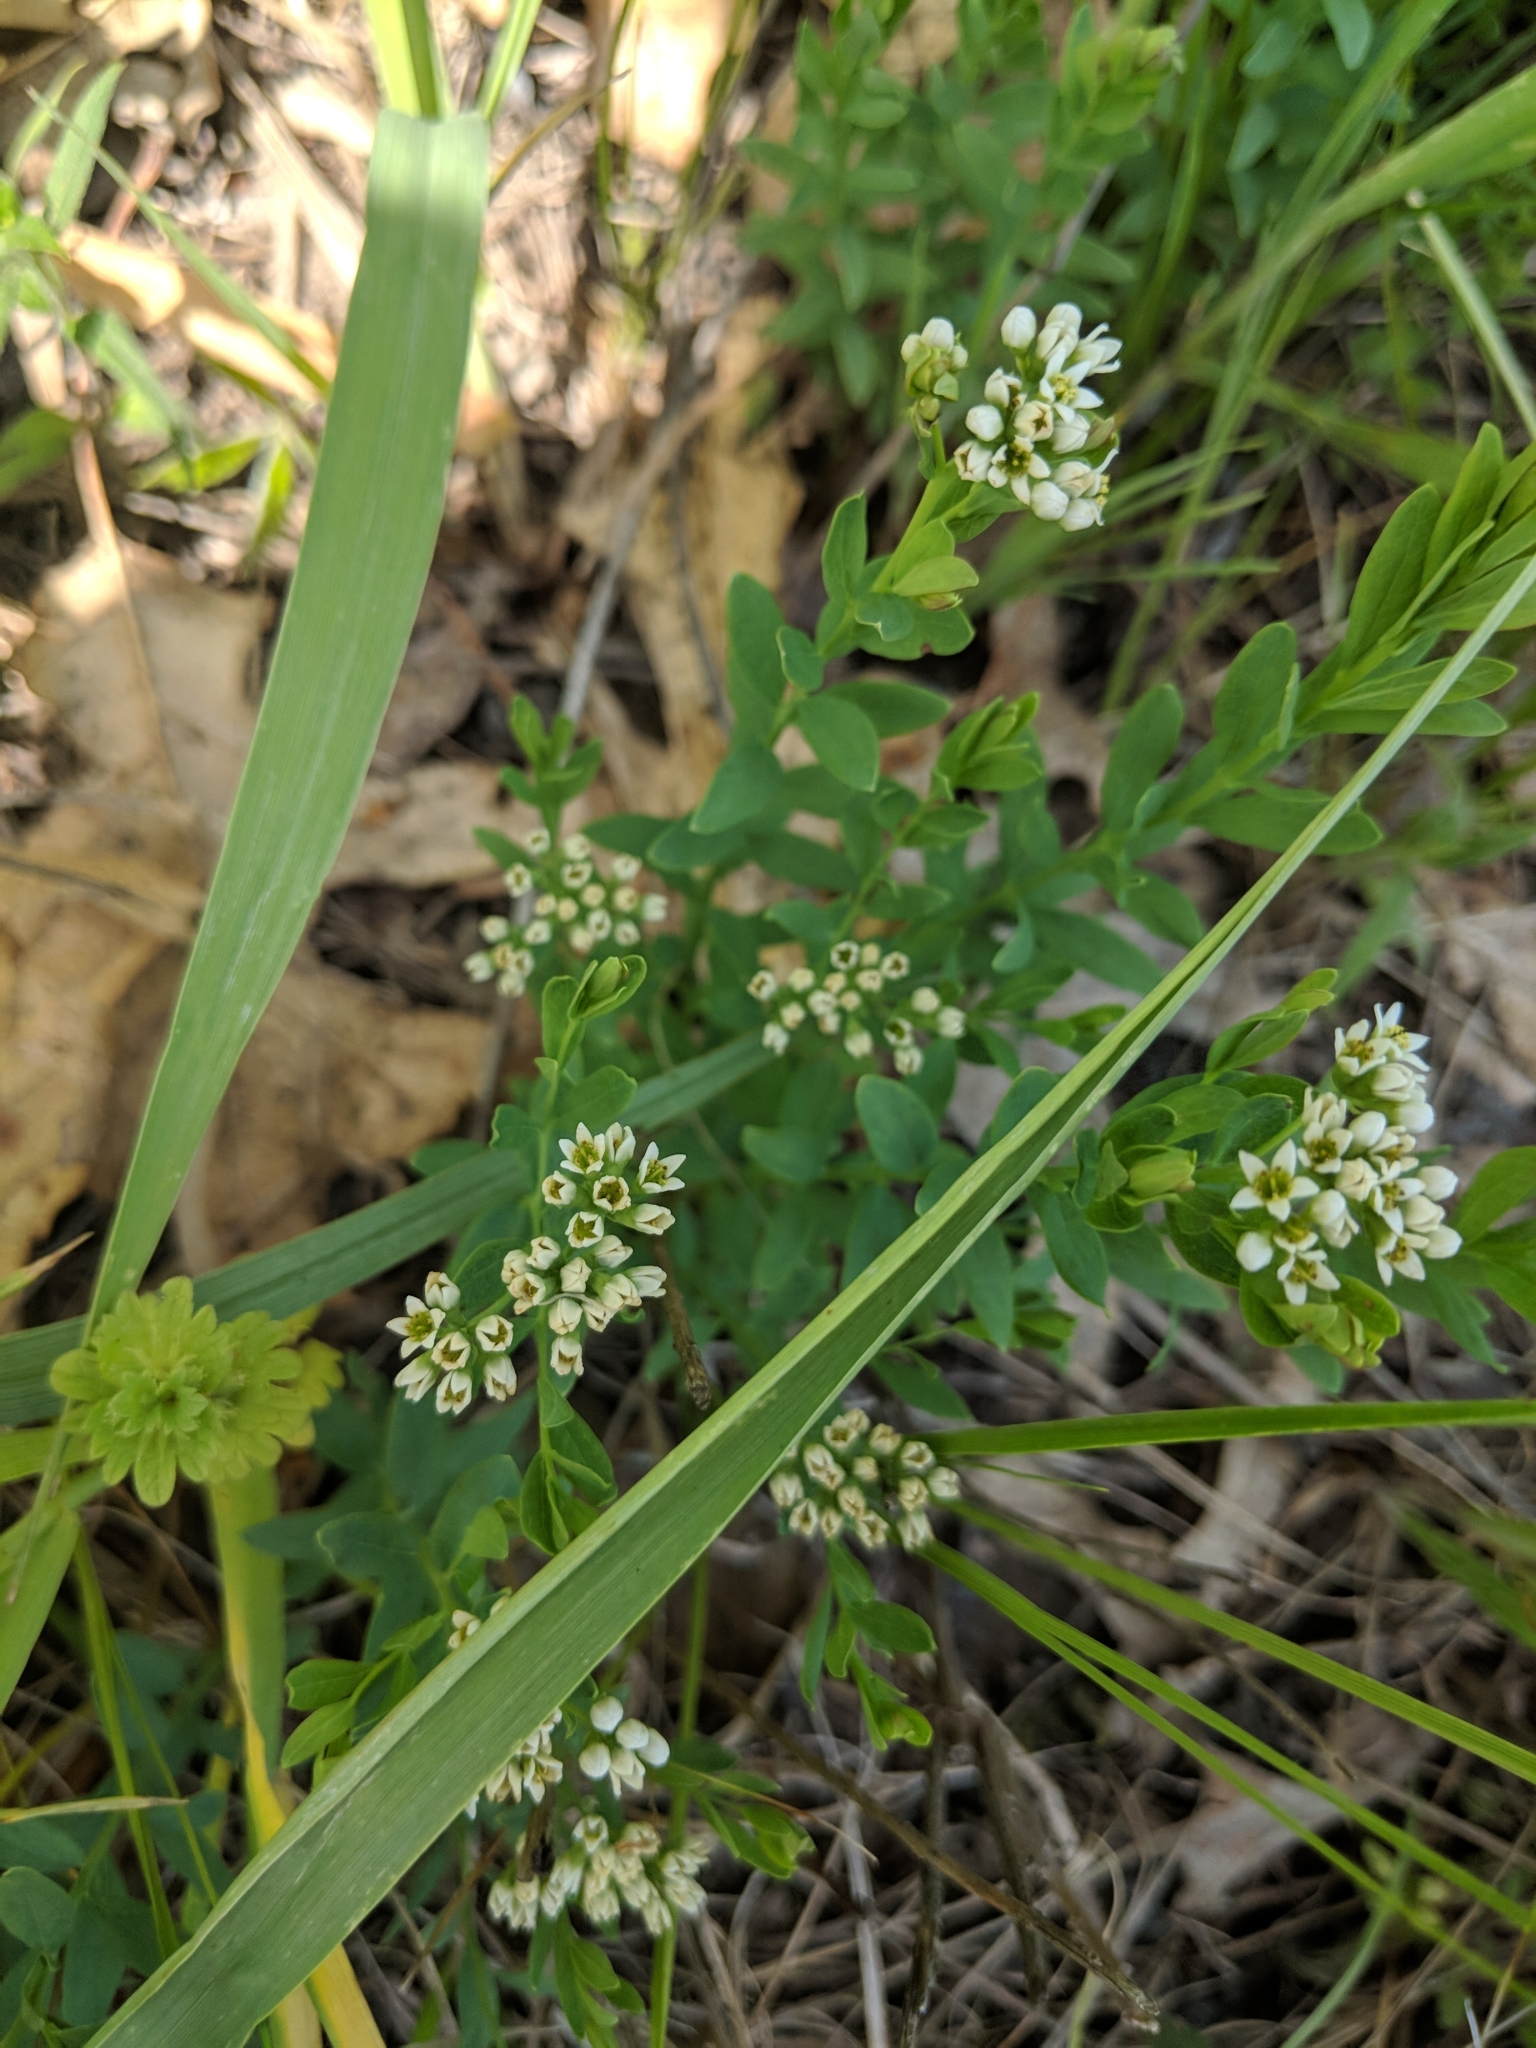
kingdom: Plantae
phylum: Tracheophyta
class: Magnoliopsida
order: Santalales
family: Comandraceae
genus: Comandra
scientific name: Comandra umbellata
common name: Bastard toadflax
